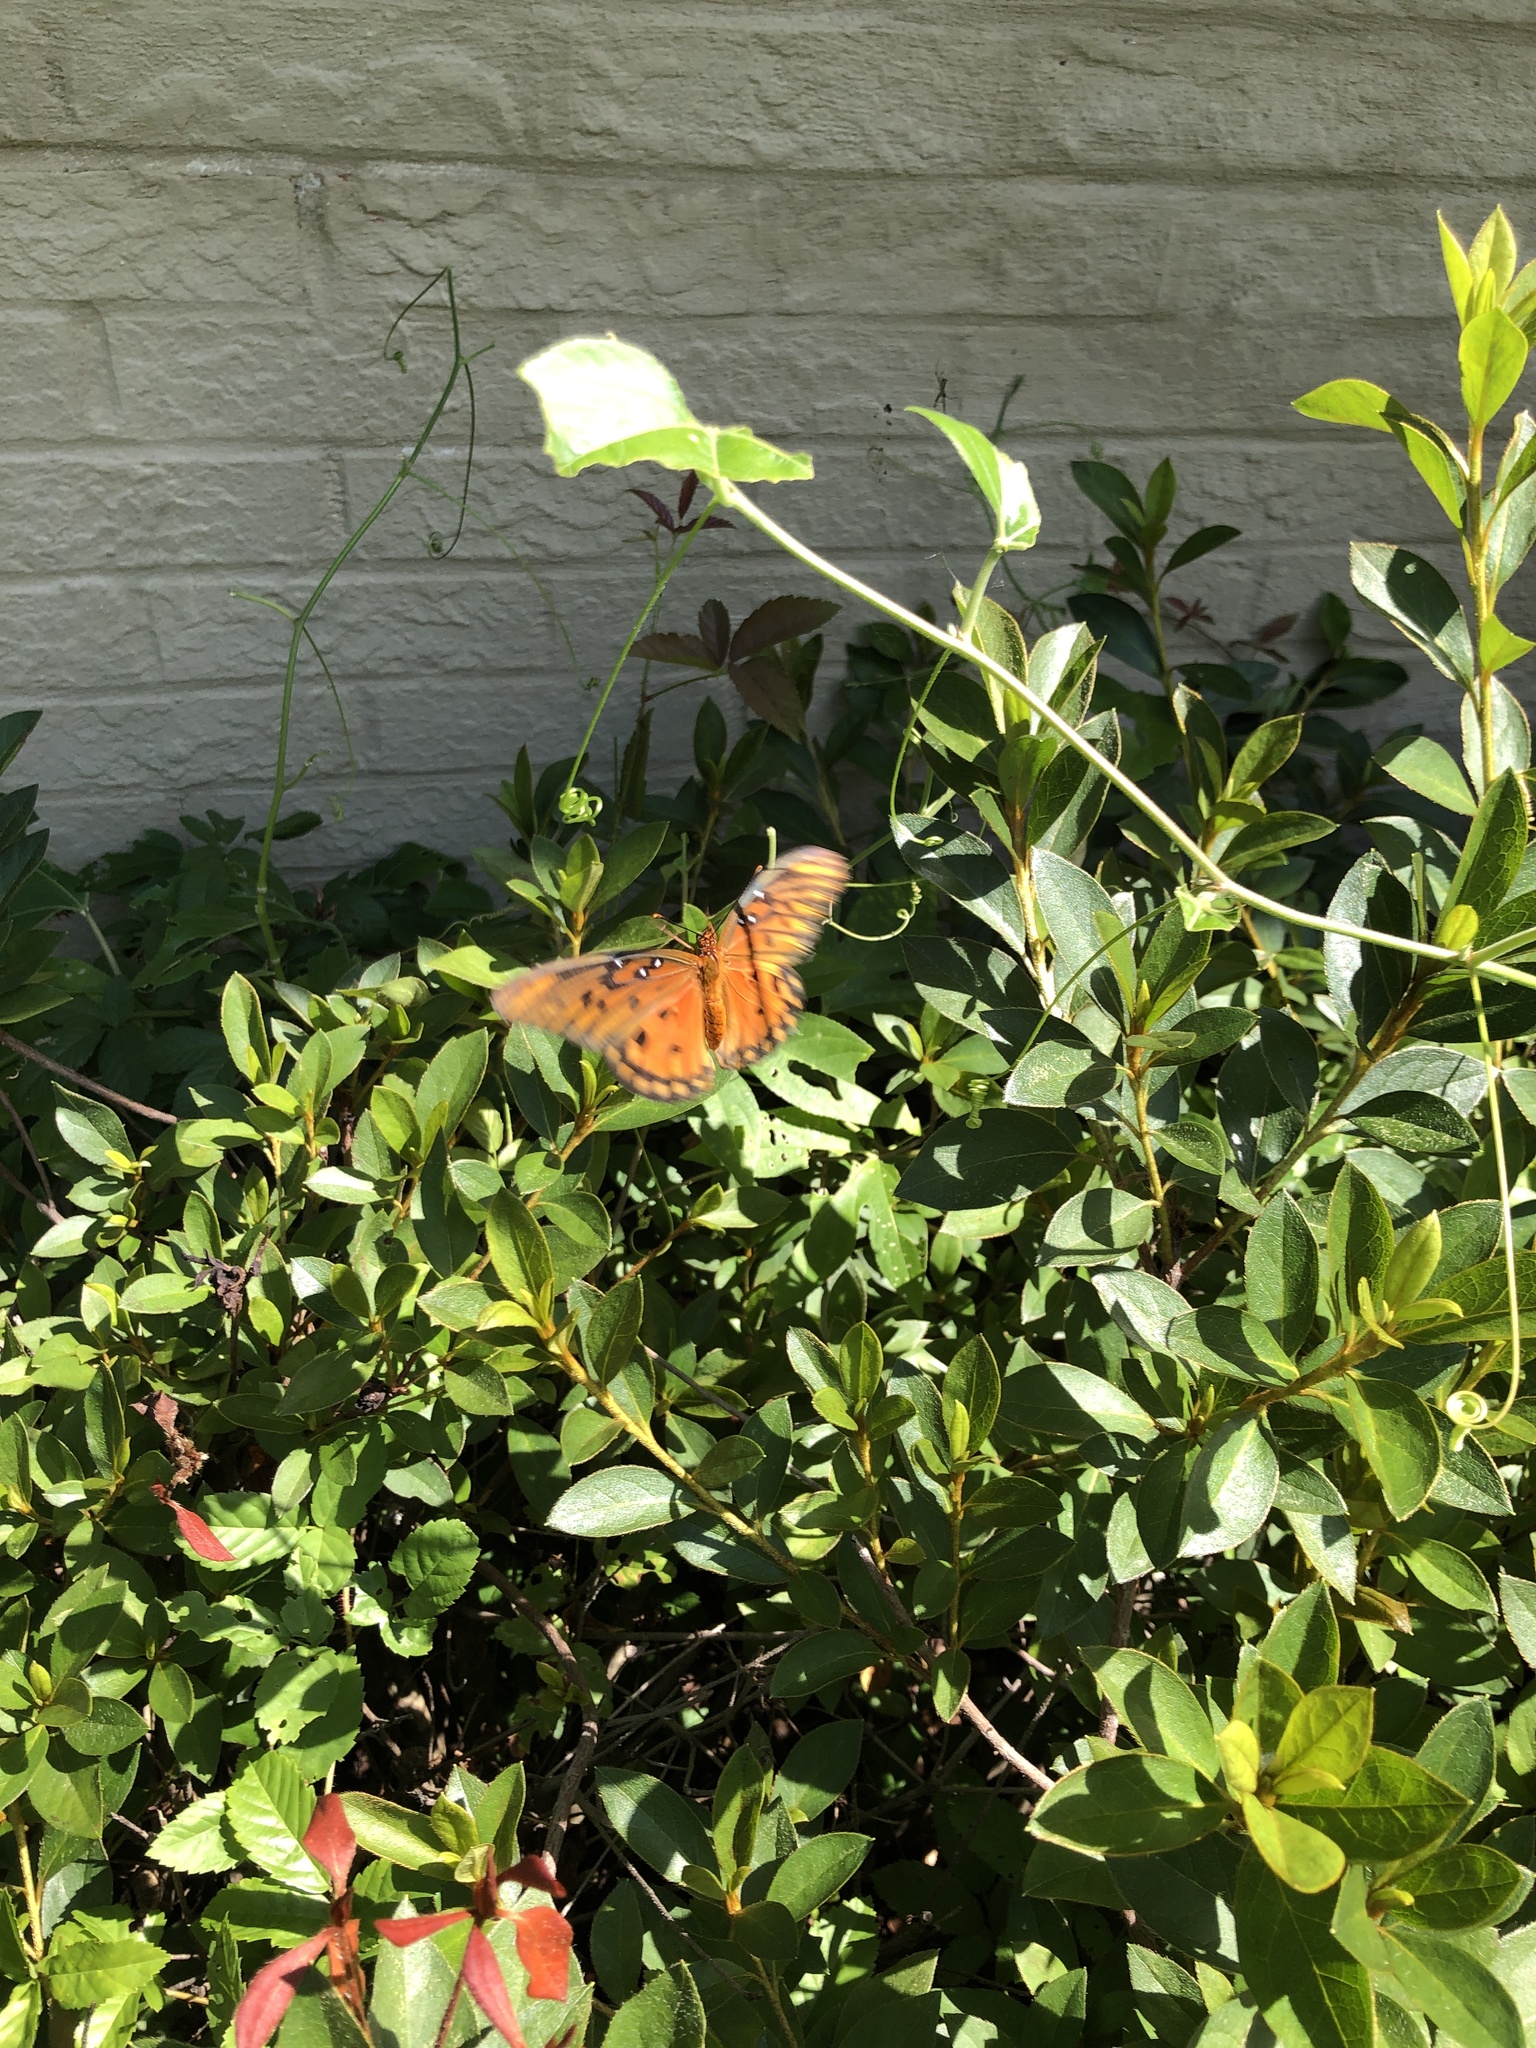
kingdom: Animalia
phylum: Arthropoda
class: Insecta
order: Lepidoptera
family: Nymphalidae
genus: Dione
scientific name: Dione vanillae
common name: Gulf fritillary
